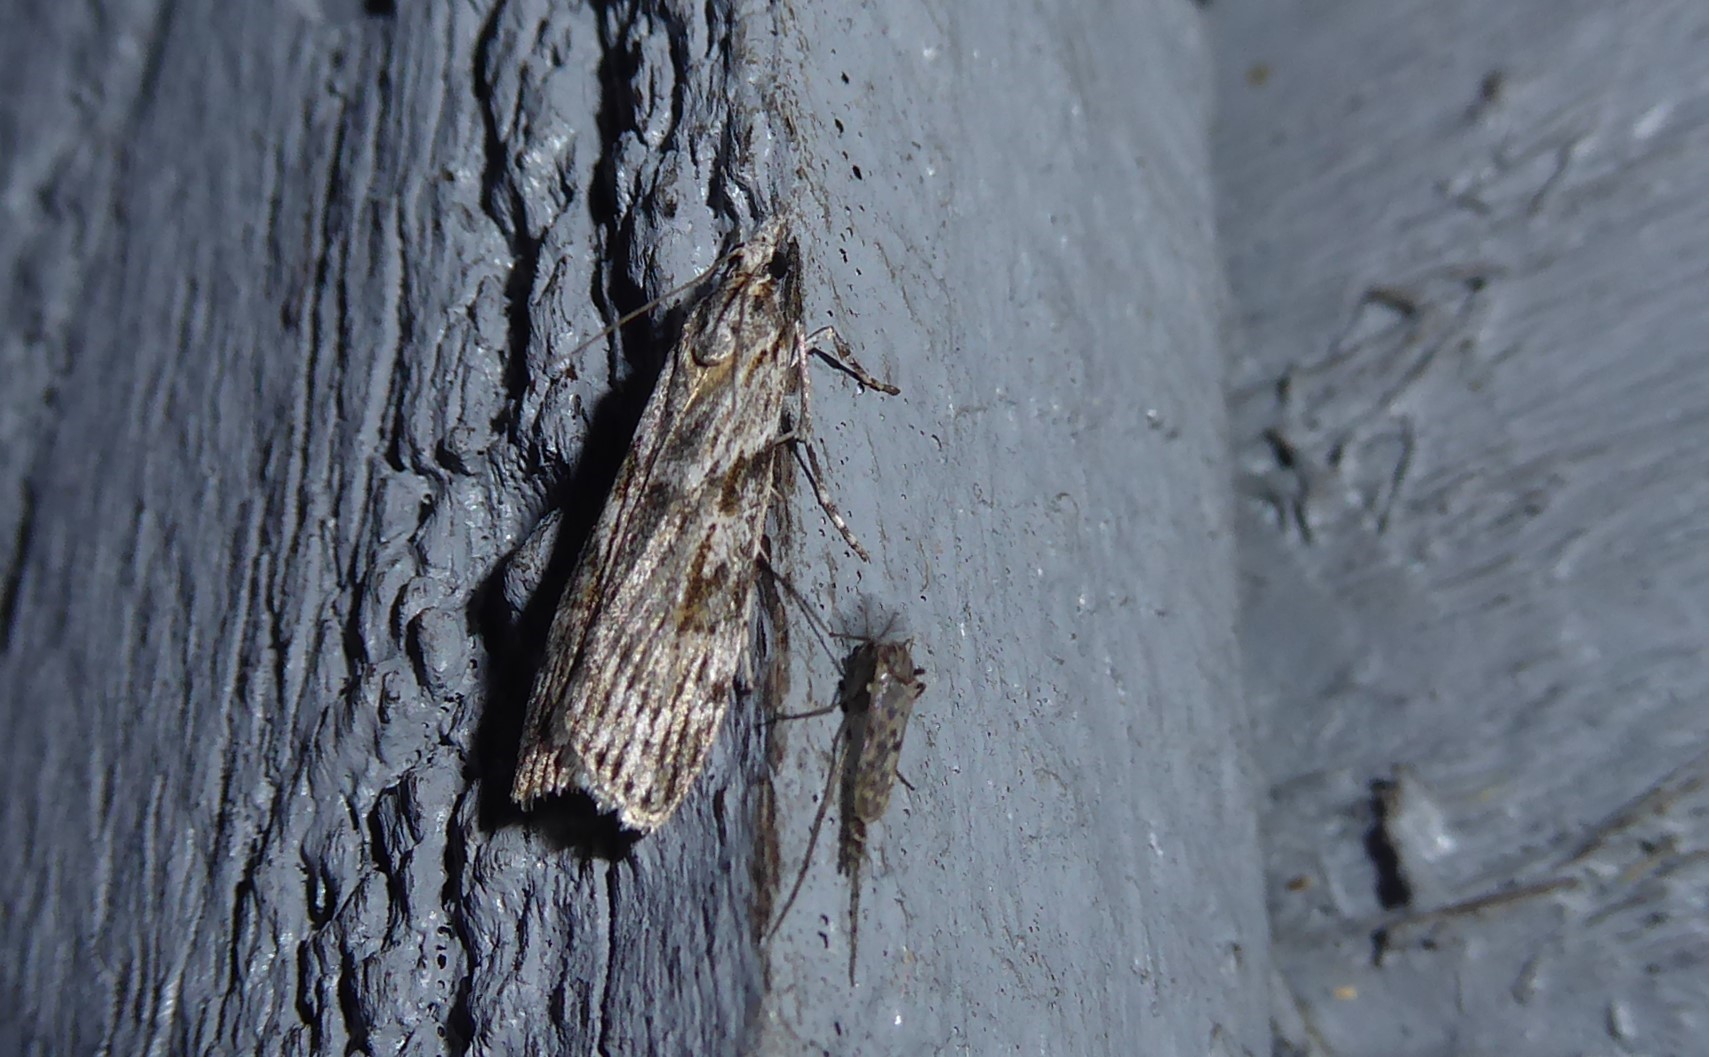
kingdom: Animalia
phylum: Arthropoda
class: Insecta
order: Lepidoptera
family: Crambidae
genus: Scoparia
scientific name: Scoparia halopis
